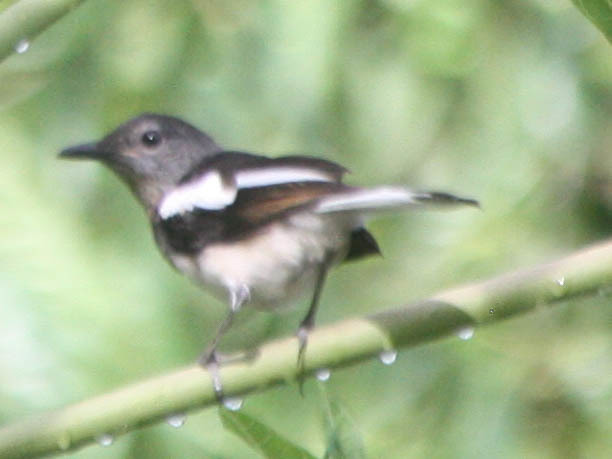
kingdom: Animalia
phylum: Chordata
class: Aves
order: Passeriformes
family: Muscicapidae
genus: Copsychus
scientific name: Copsychus saularis
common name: Oriental magpie-robin
